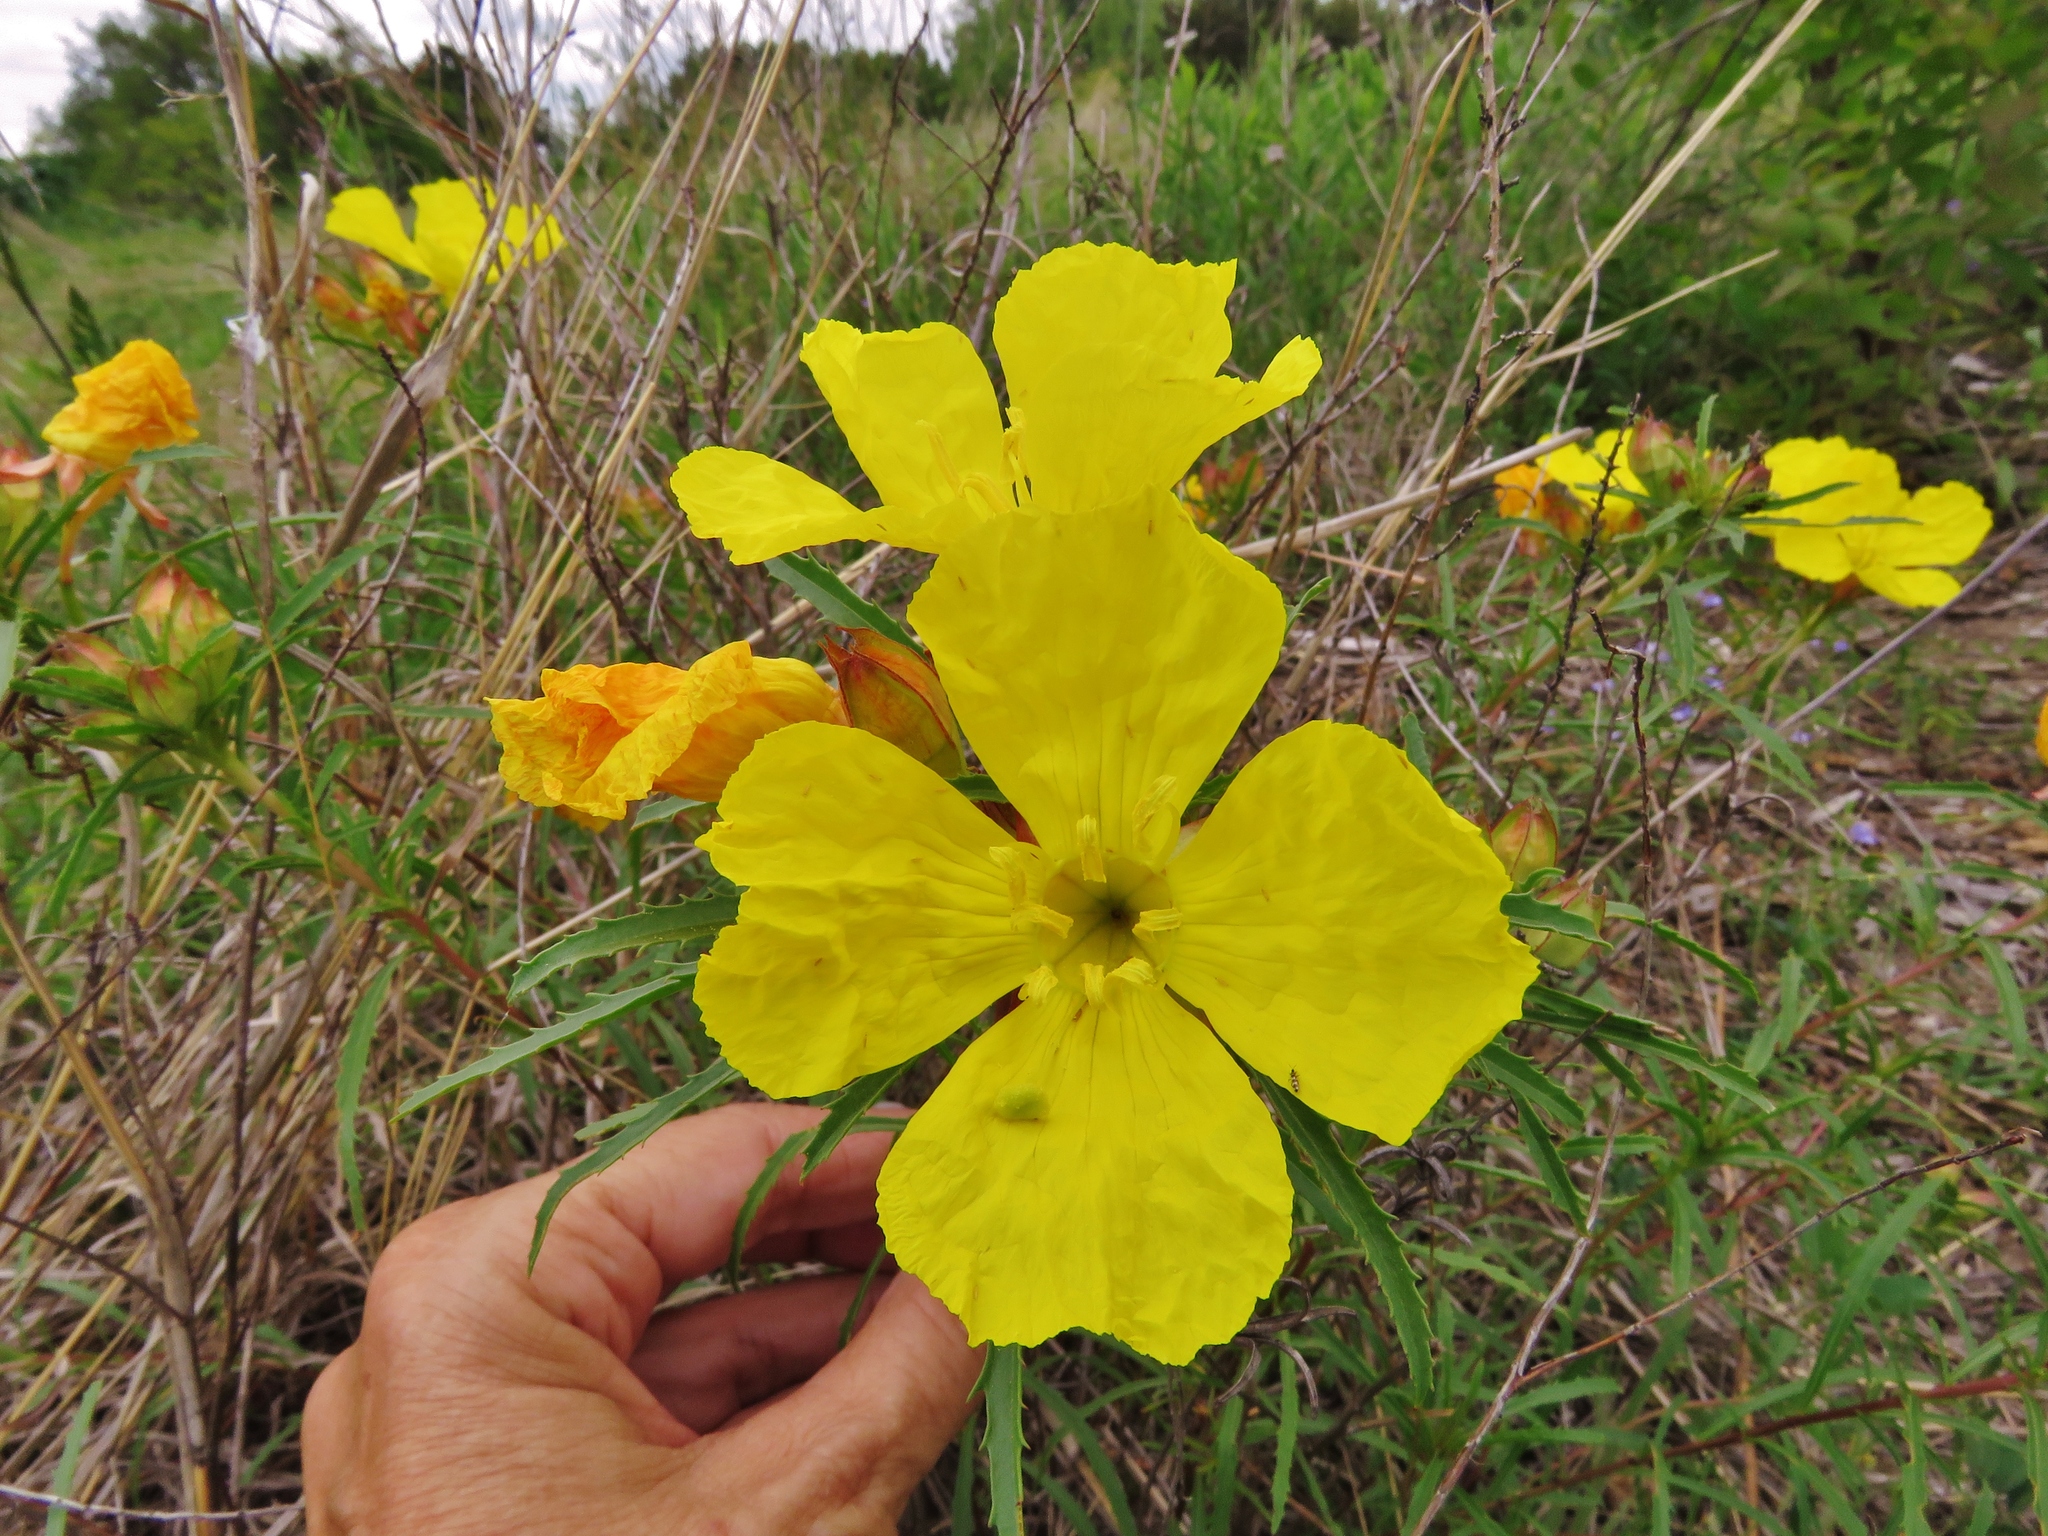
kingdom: Plantae
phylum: Tracheophyta
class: Magnoliopsida
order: Myrtales
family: Onagraceae
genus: Oenothera
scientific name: Oenothera macrocarpa
